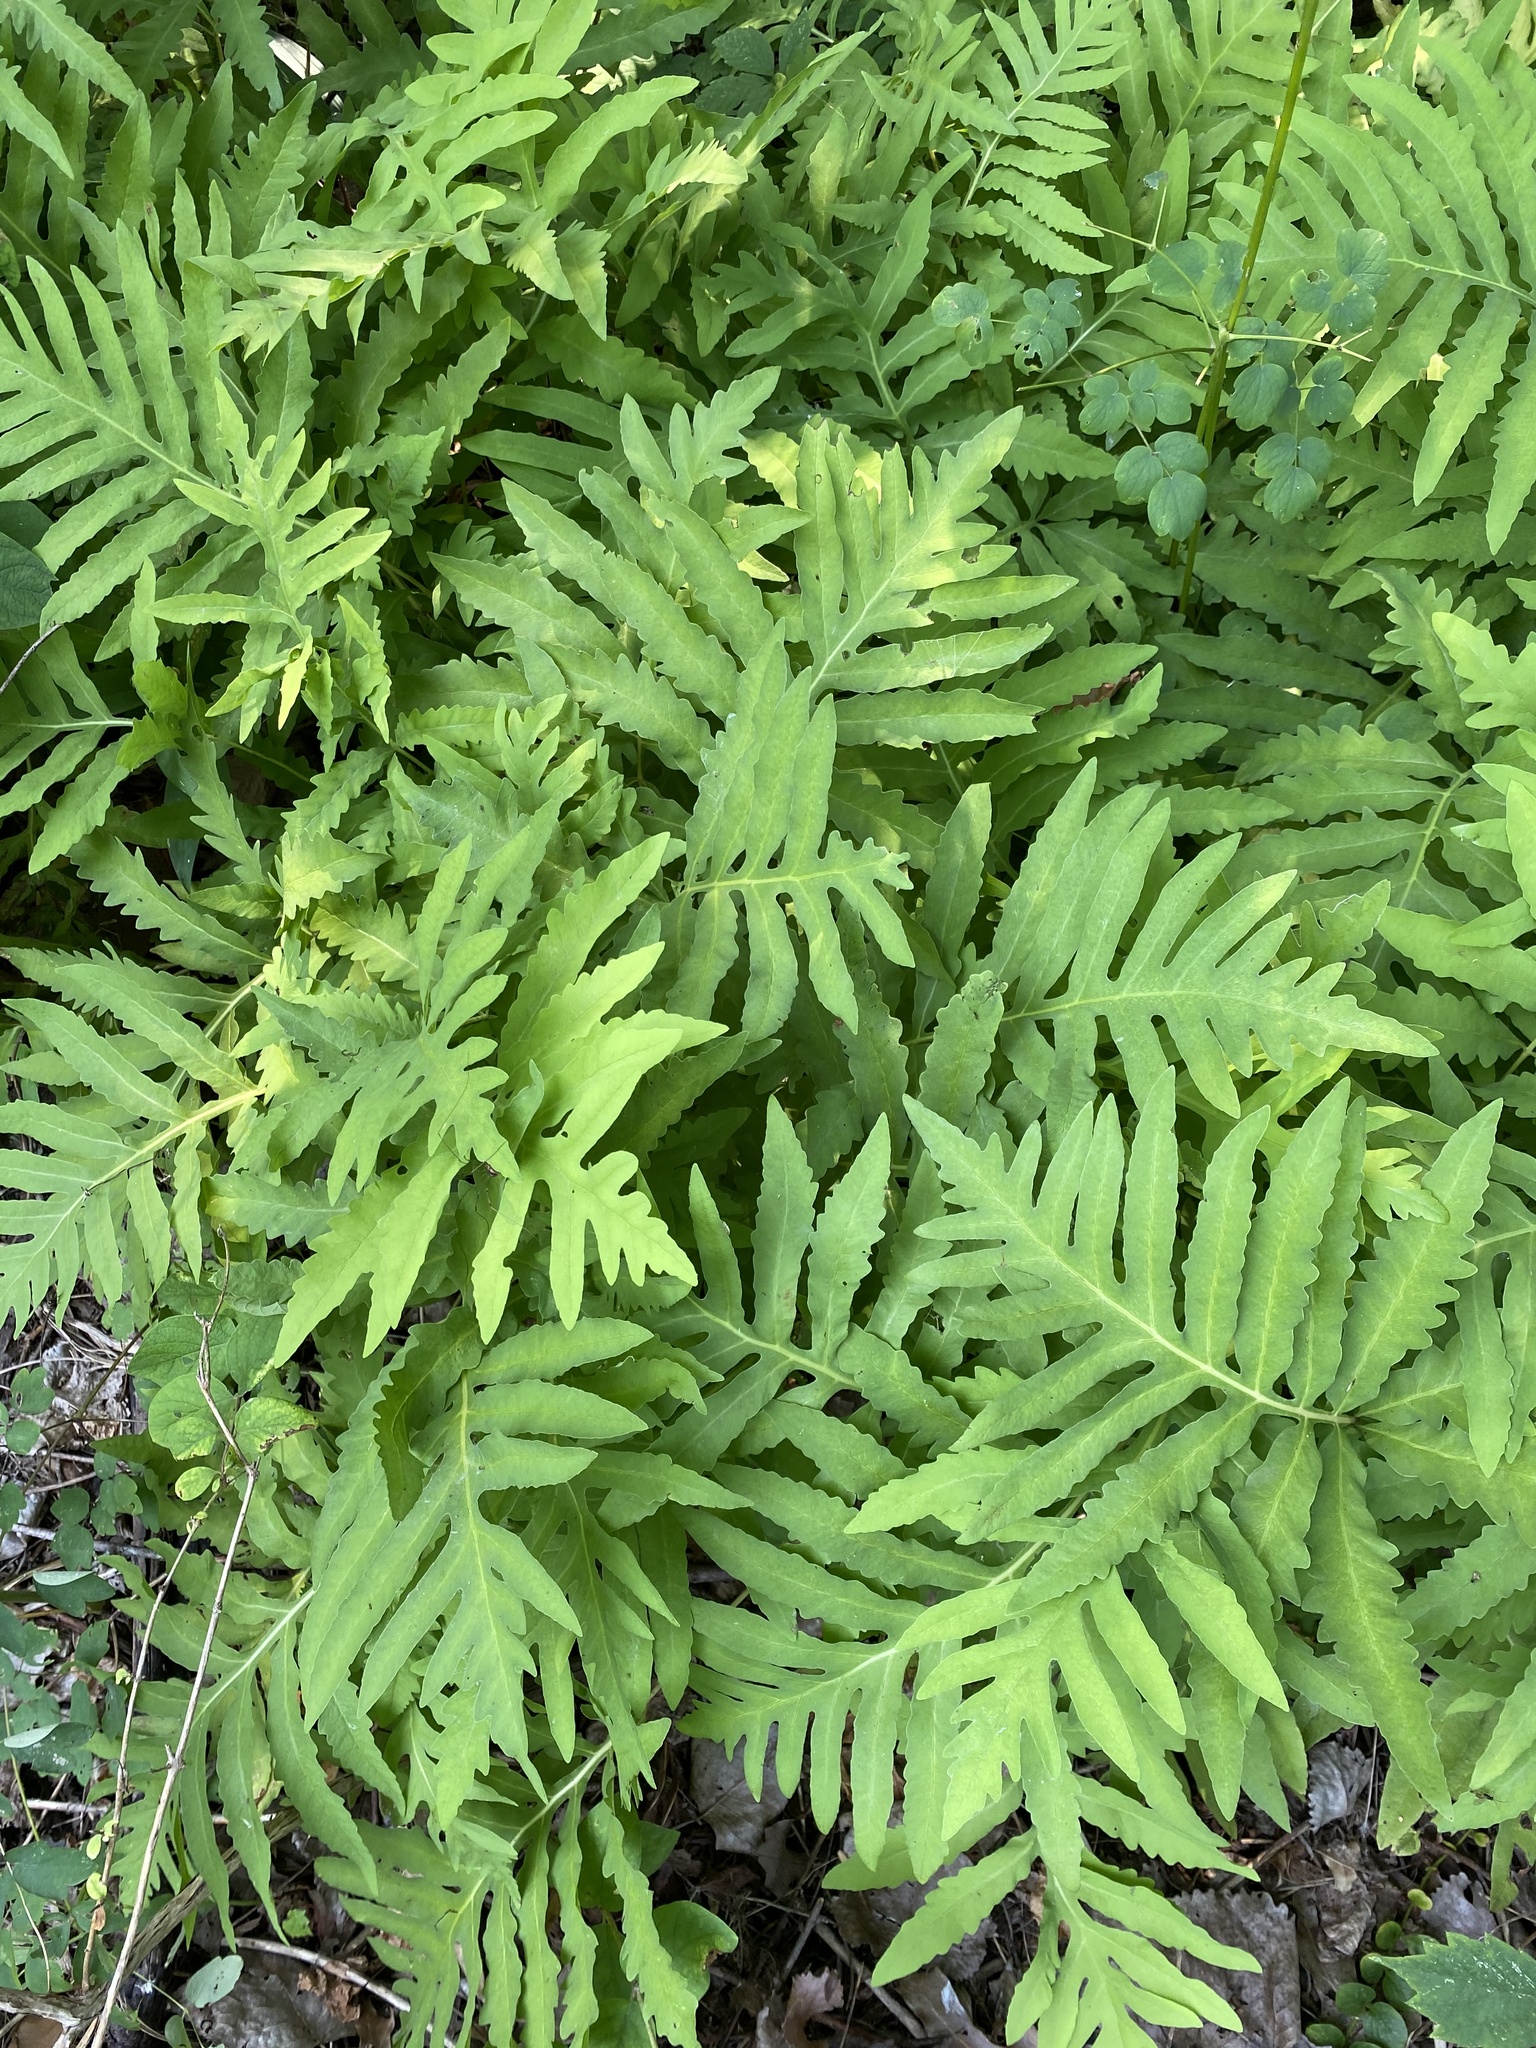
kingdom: Plantae
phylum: Tracheophyta
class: Polypodiopsida
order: Polypodiales
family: Onocleaceae
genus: Onoclea
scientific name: Onoclea sensibilis
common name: Sensitive fern
